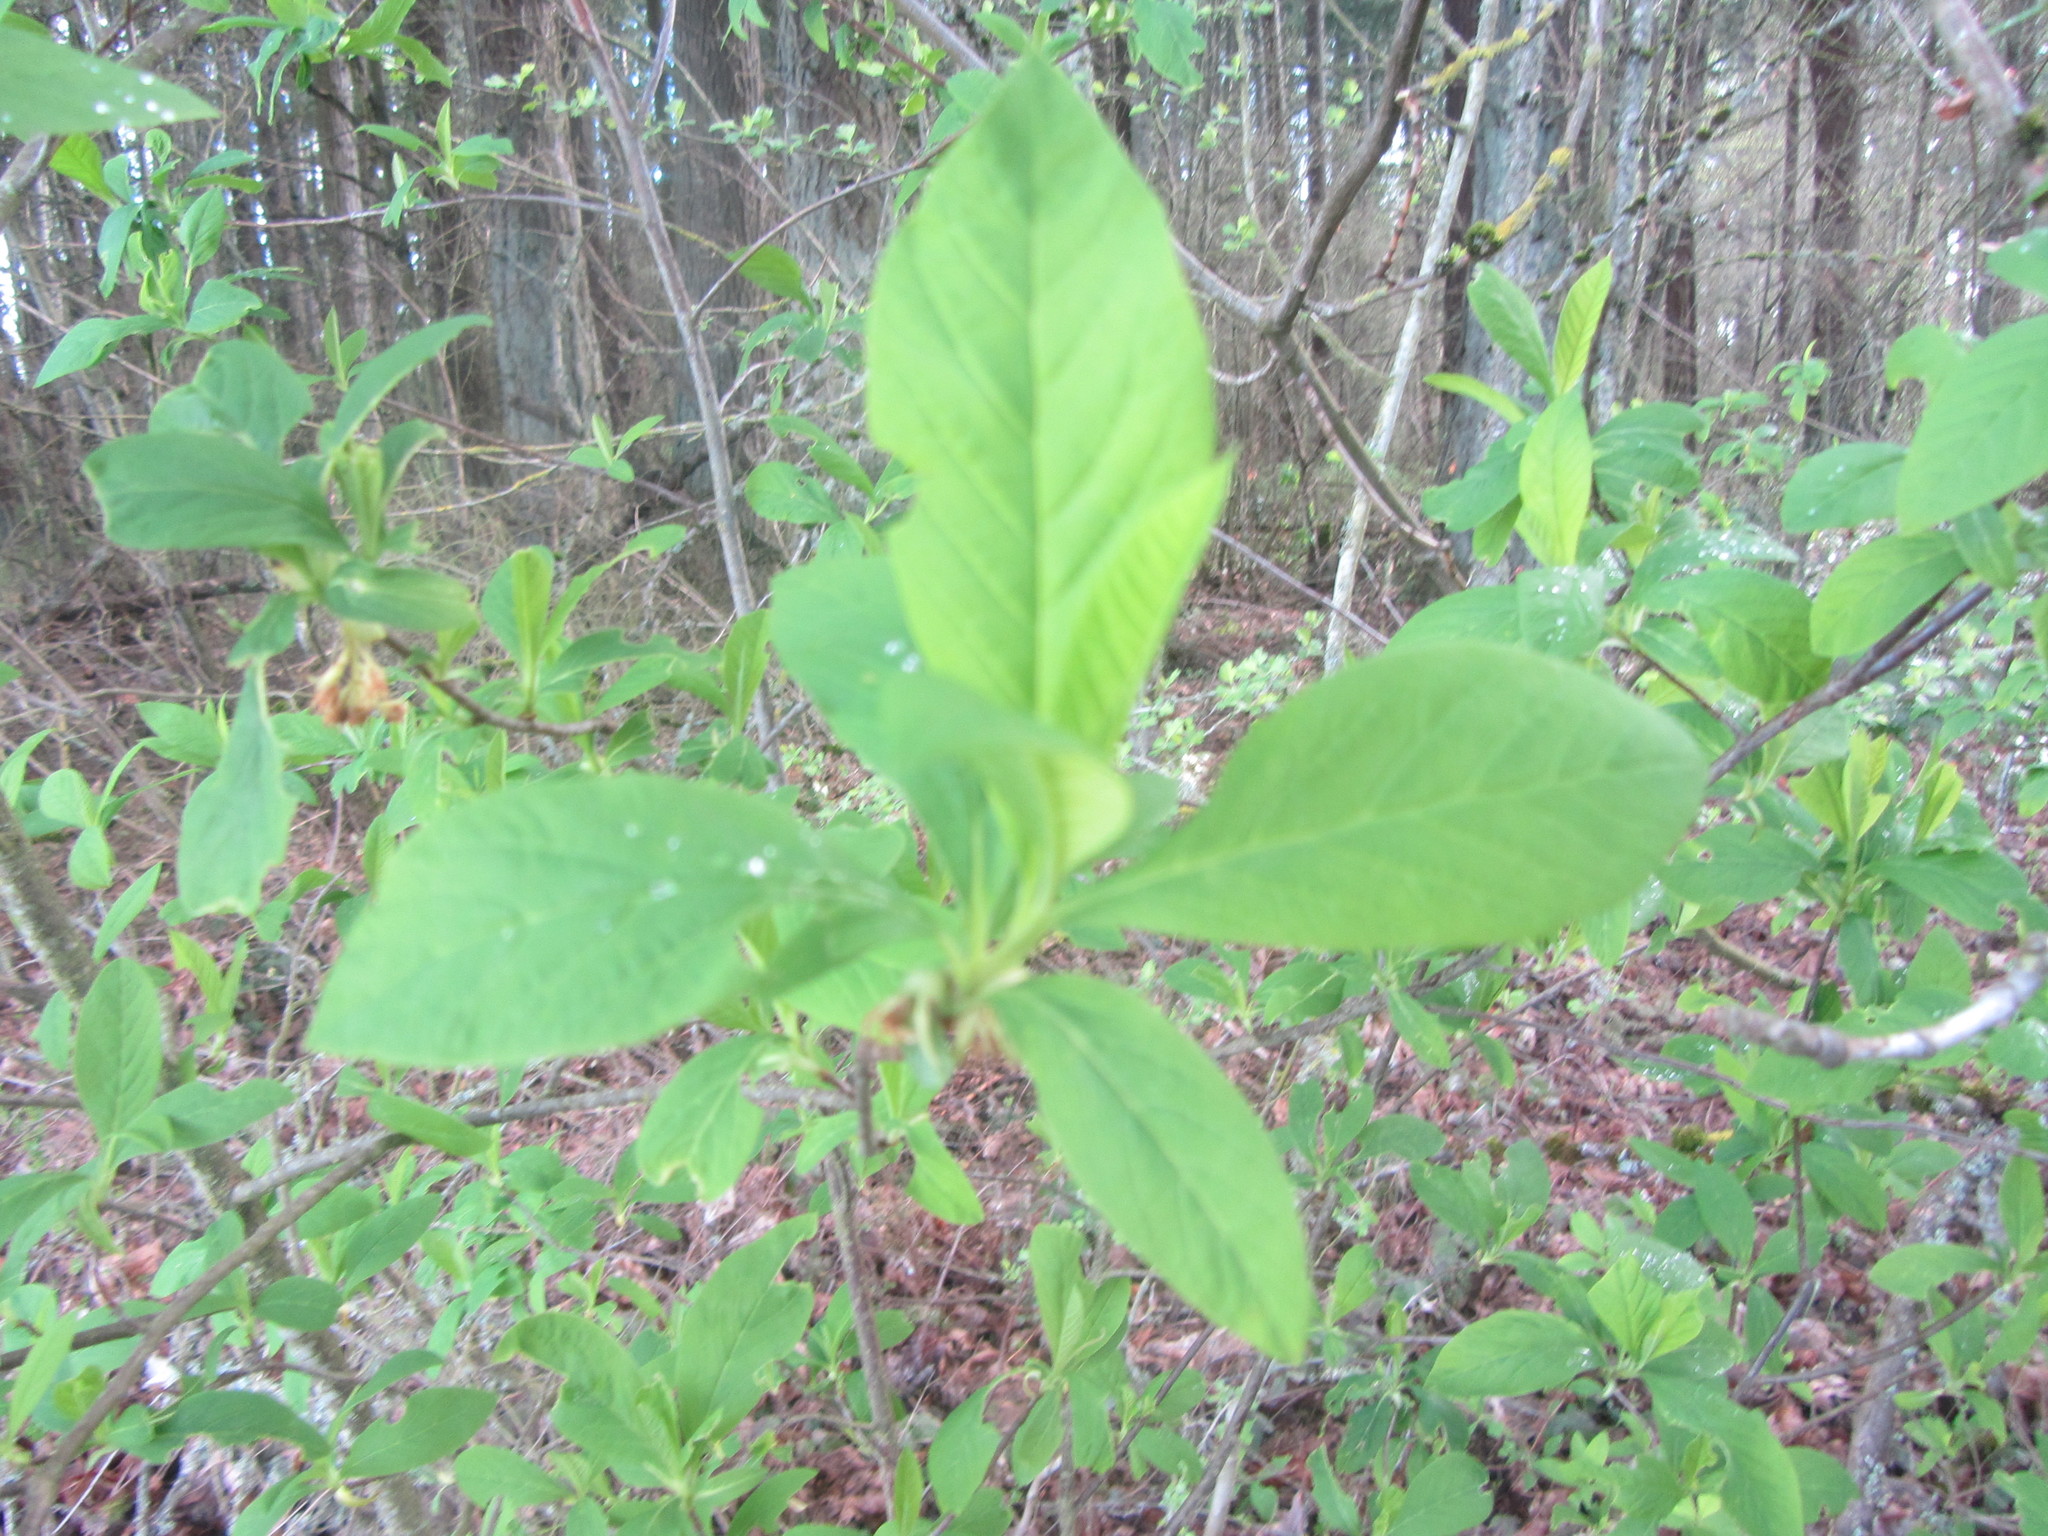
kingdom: Plantae
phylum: Tracheophyta
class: Magnoliopsida
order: Rosales
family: Rosaceae
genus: Oemleria
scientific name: Oemleria cerasiformis
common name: Osoberry
